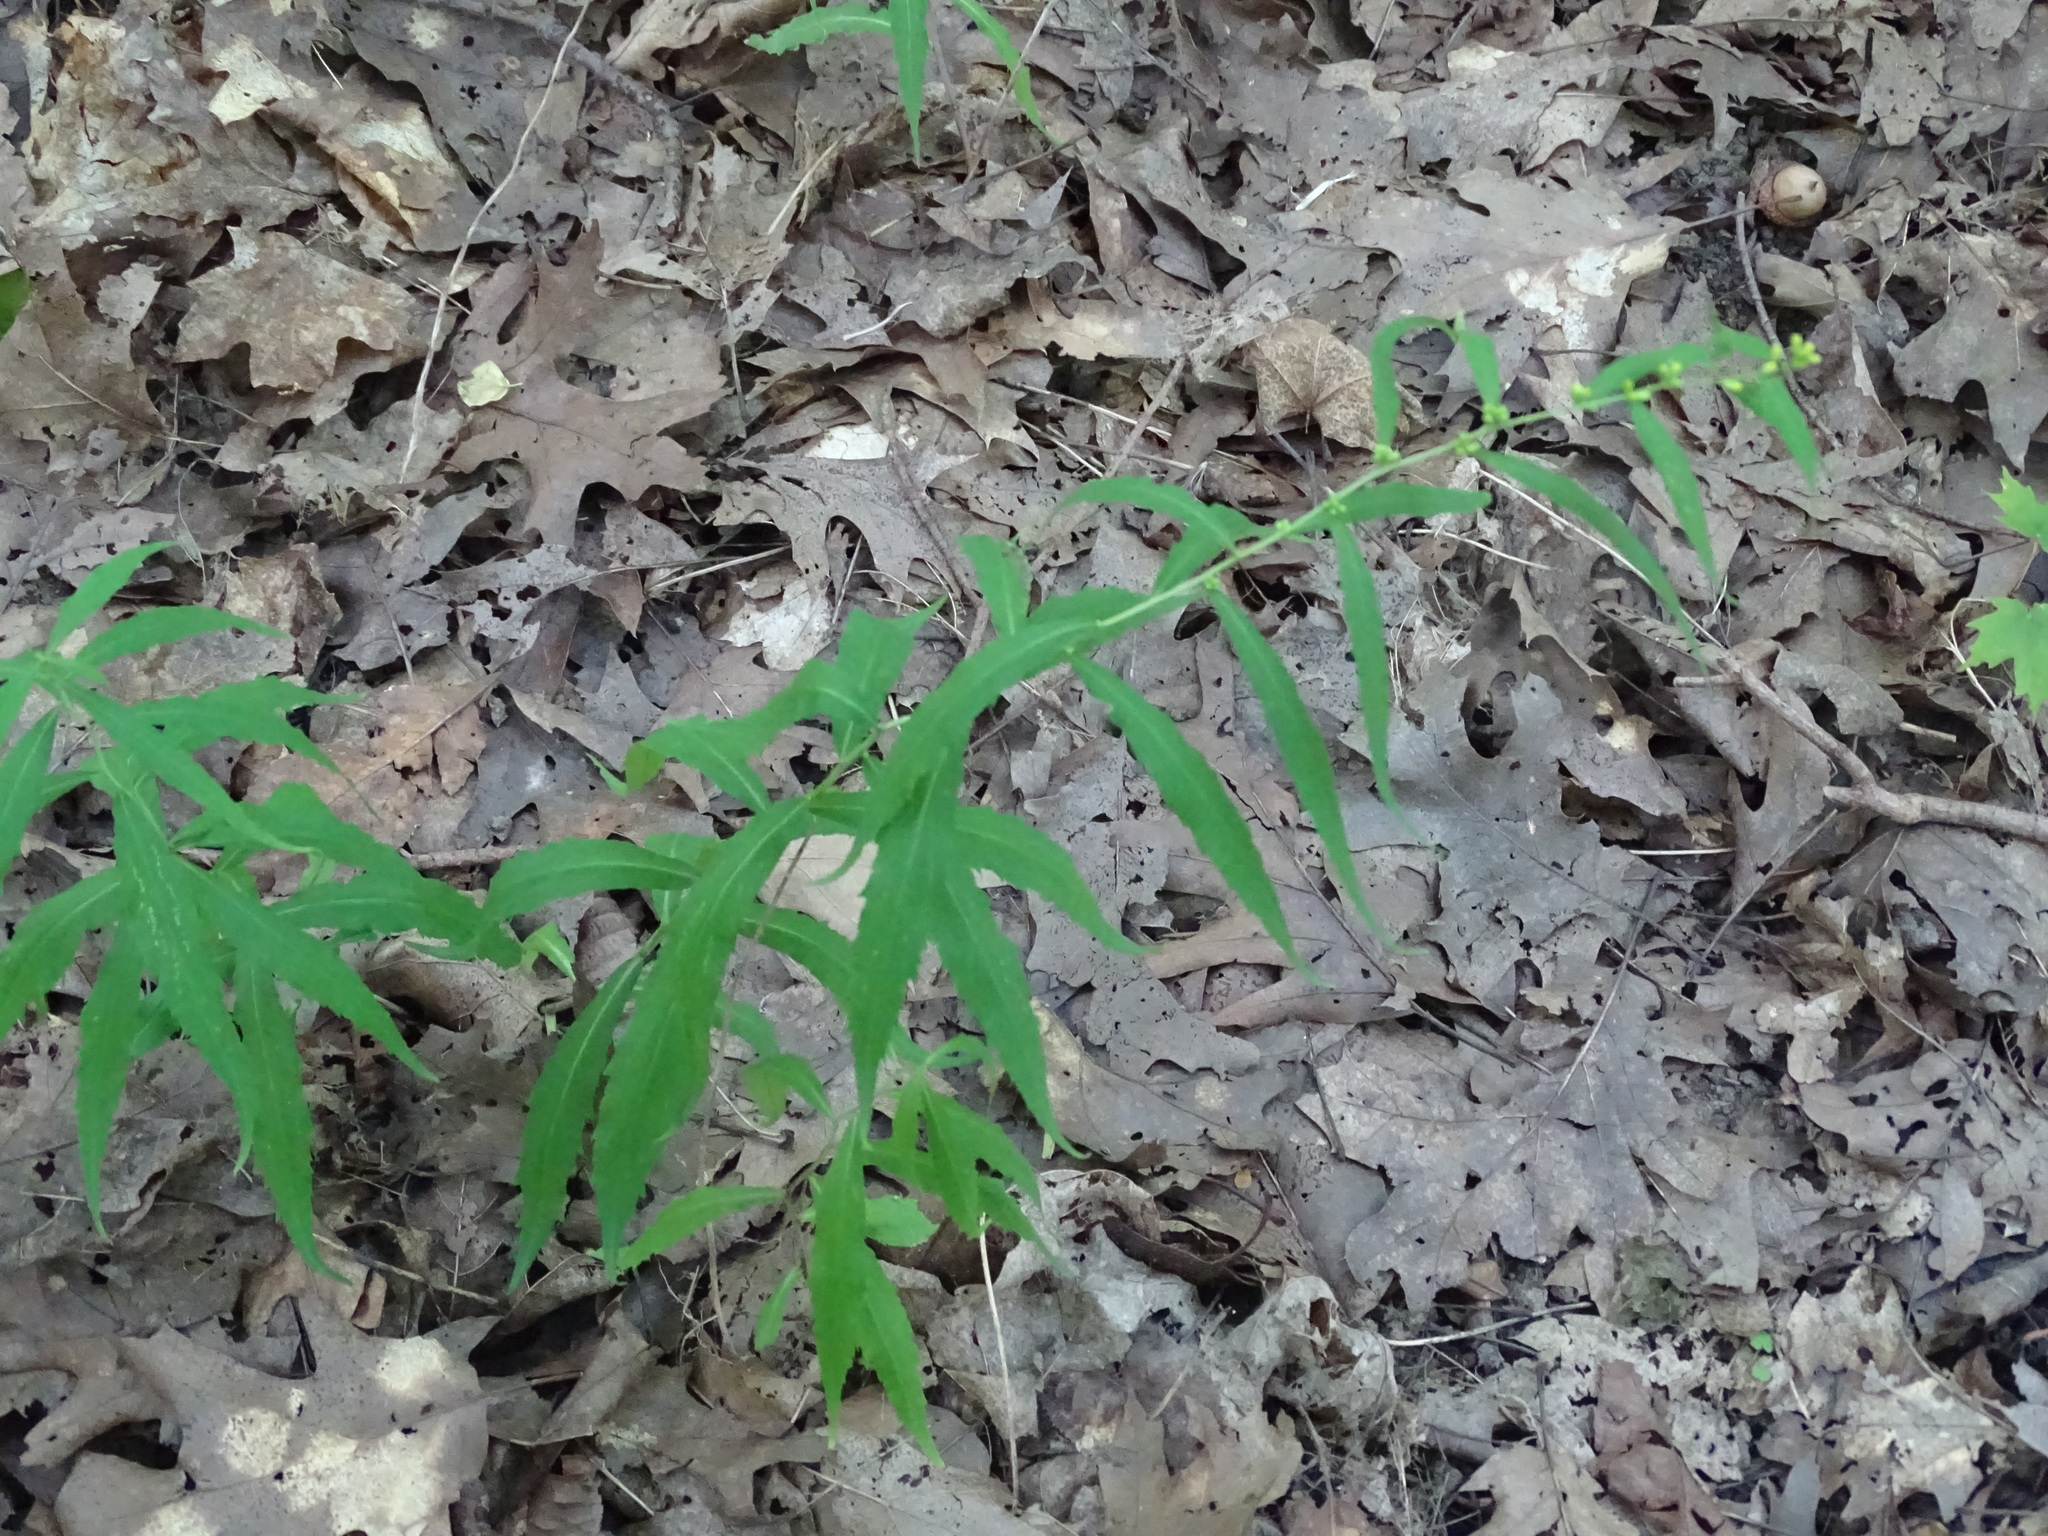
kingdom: Plantae
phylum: Tracheophyta
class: Magnoliopsida
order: Asterales
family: Asteraceae
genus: Solidago
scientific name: Solidago caesia
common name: Woodland goldenrod
